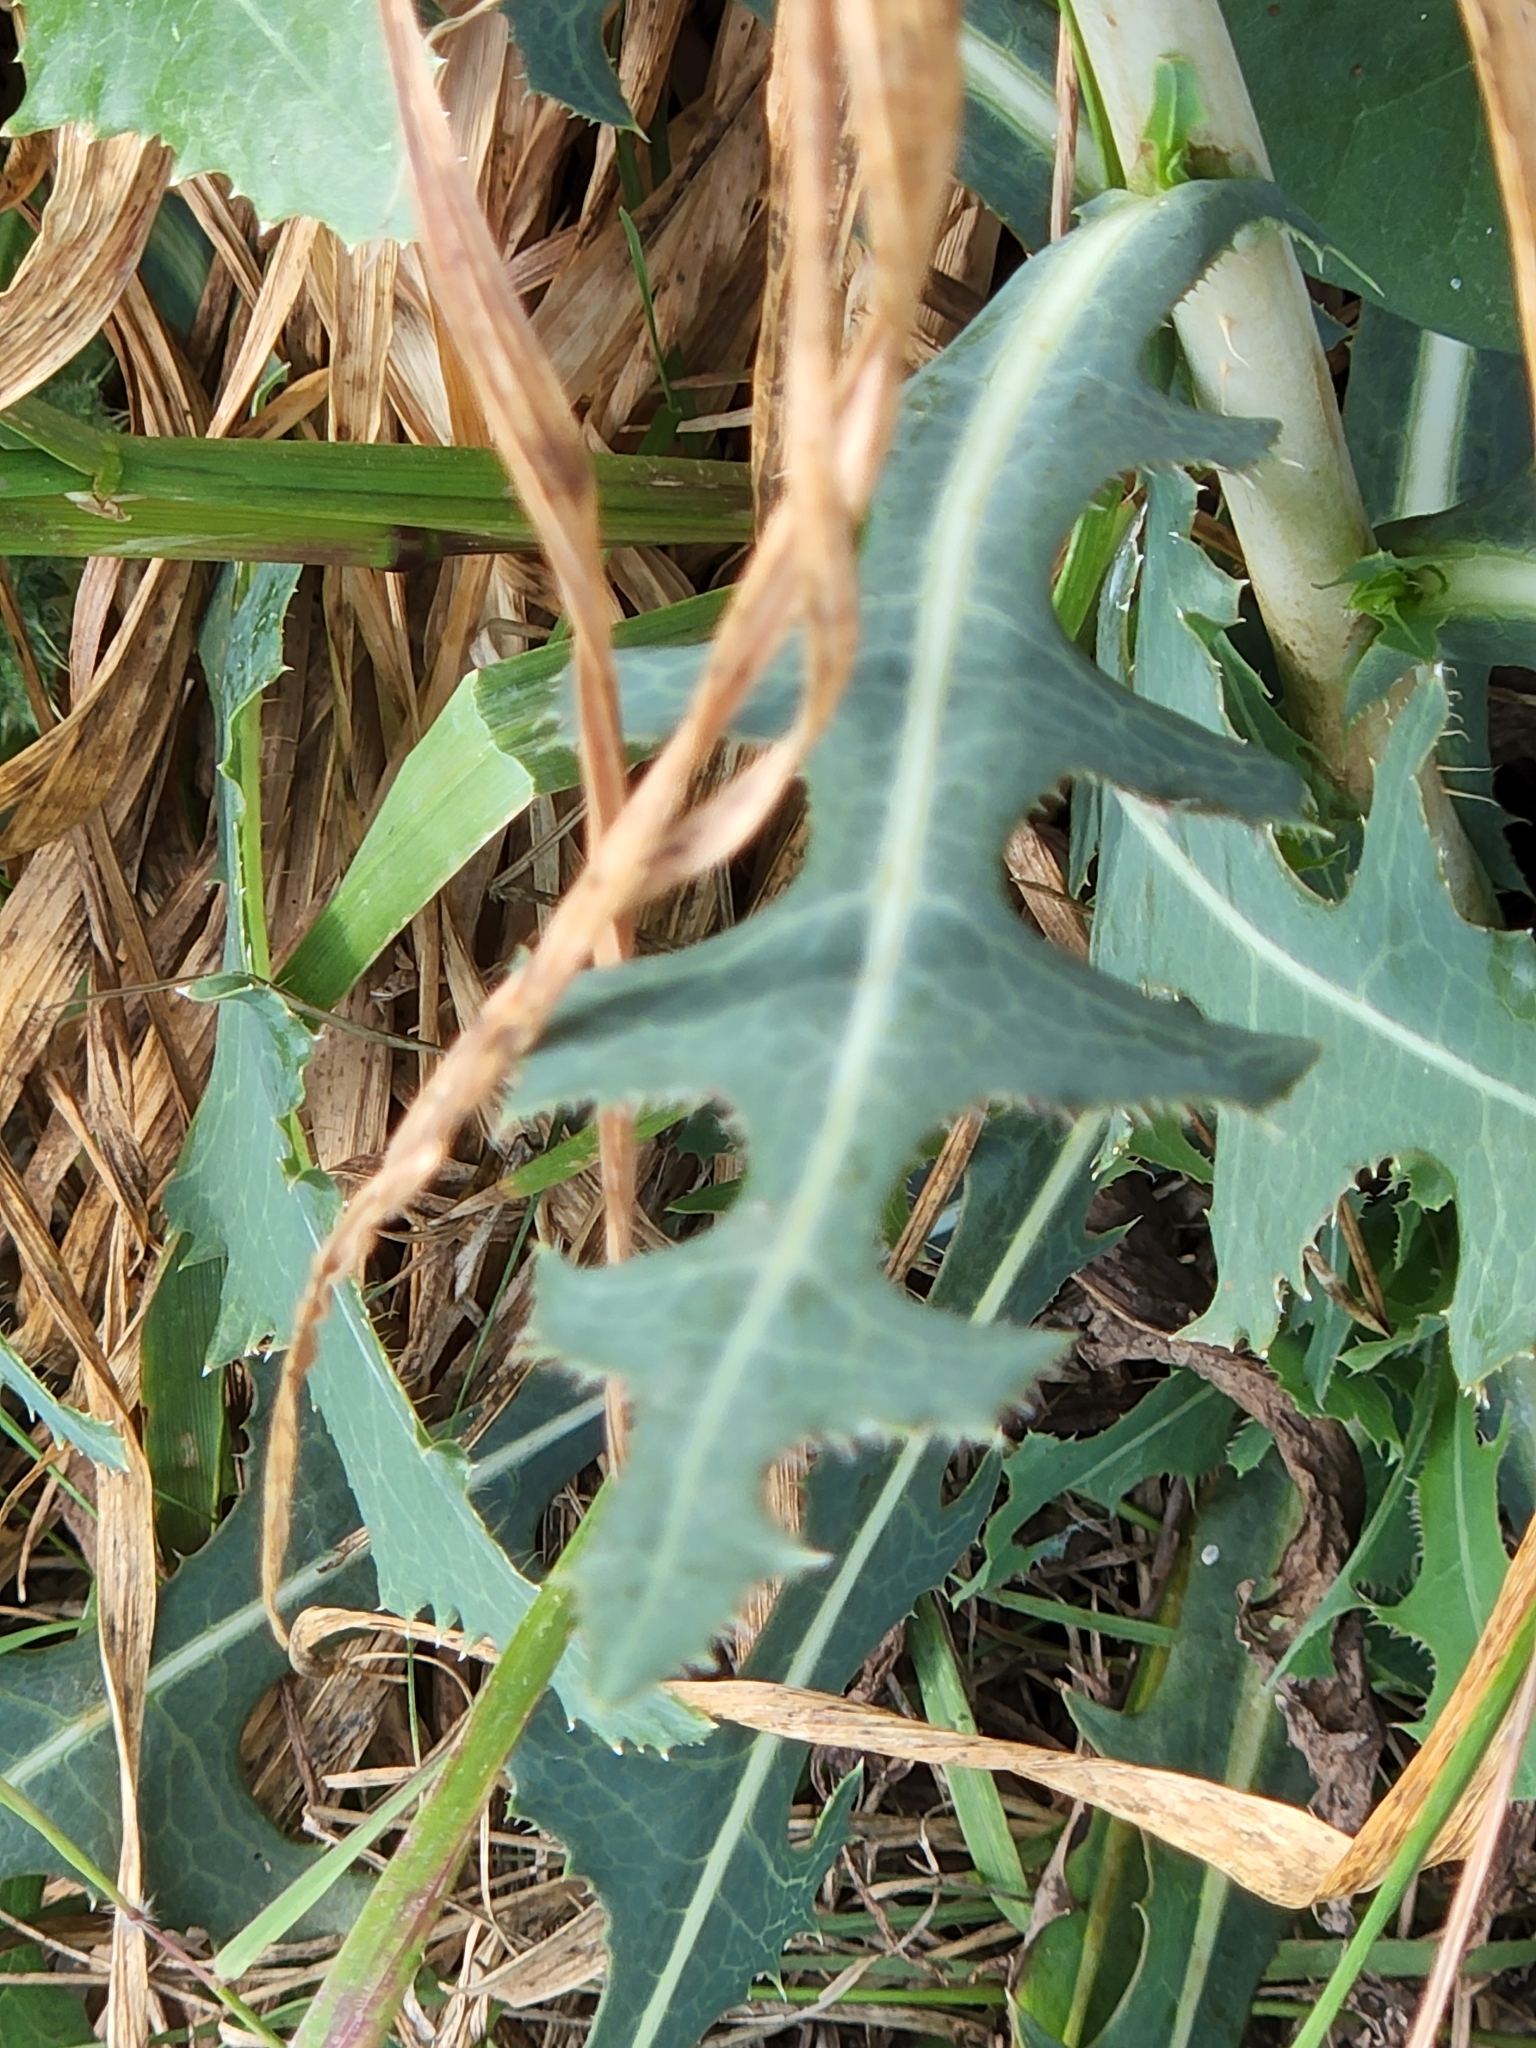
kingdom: Plantae
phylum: Tracheophyta
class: Magnoliopsida
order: Asterales
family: Asteraceae
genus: Lactuca
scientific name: Lactuca serriola
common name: Prickly lettuce
